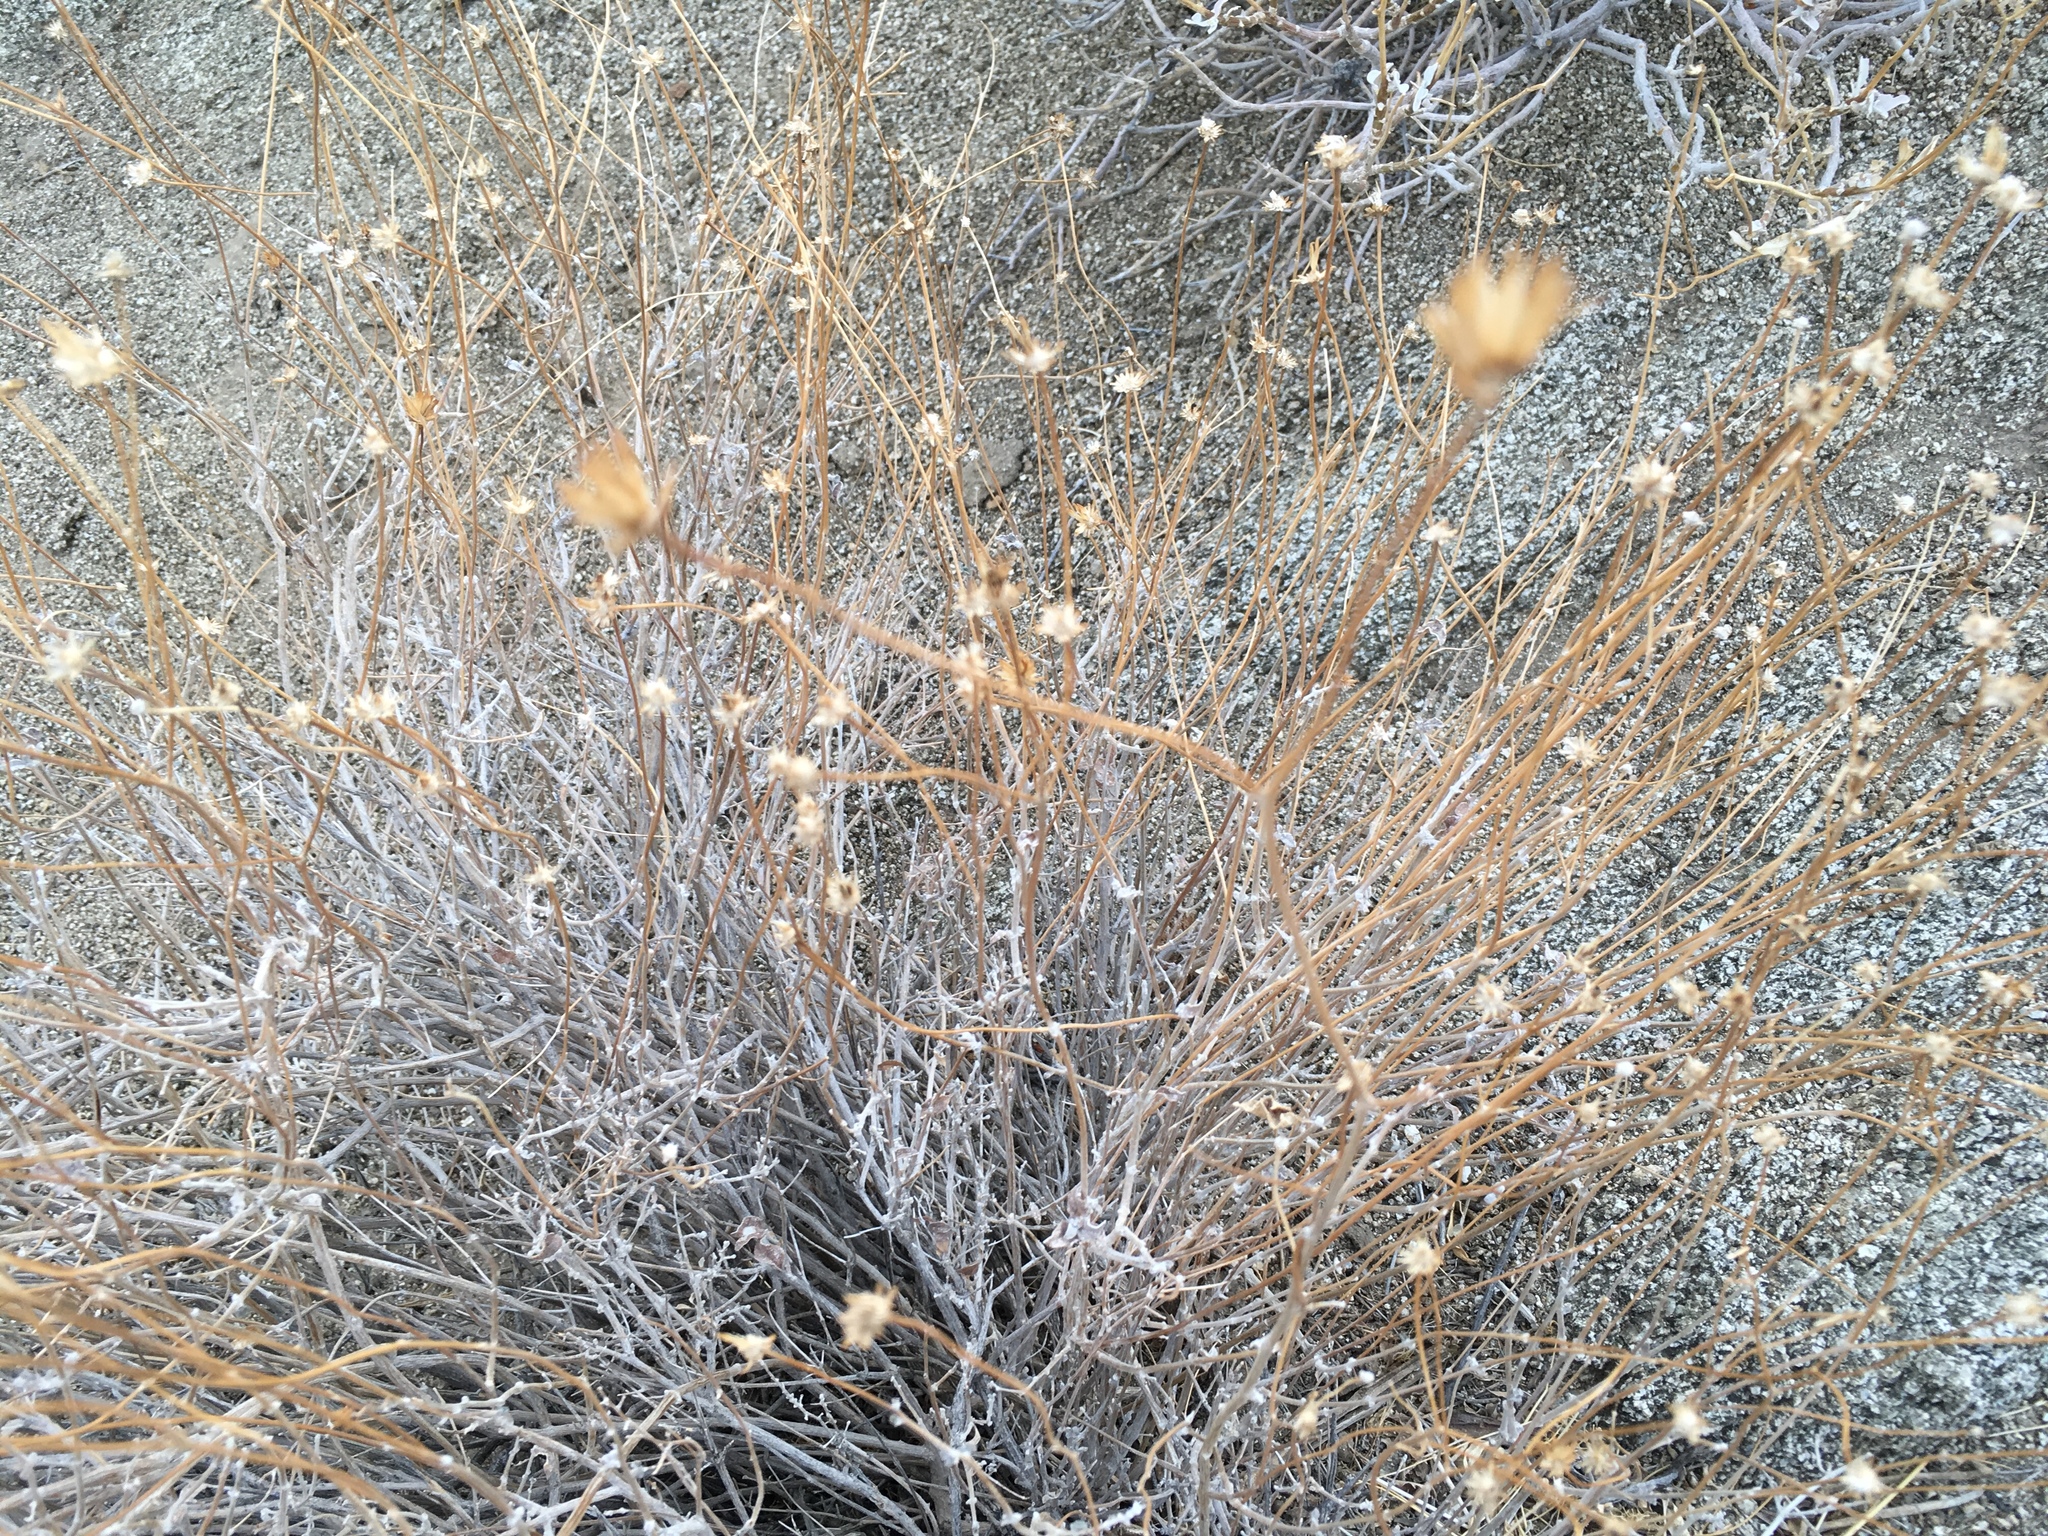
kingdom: Plantae
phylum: Tracheophyta
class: Magnoliopsida
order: Asterales
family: Asteraceae
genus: Bebbia
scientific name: Bebbia juncea
